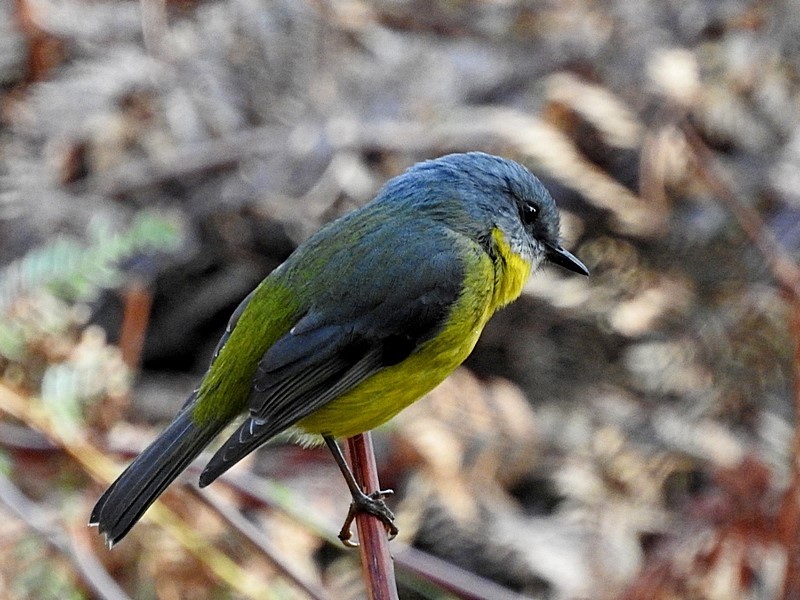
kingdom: Animalia
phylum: Chordata
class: Aves
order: Passeriformes
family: Petroicidae
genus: Eopsaltria
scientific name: Eopsaltria australis
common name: Eastern yellow robin
